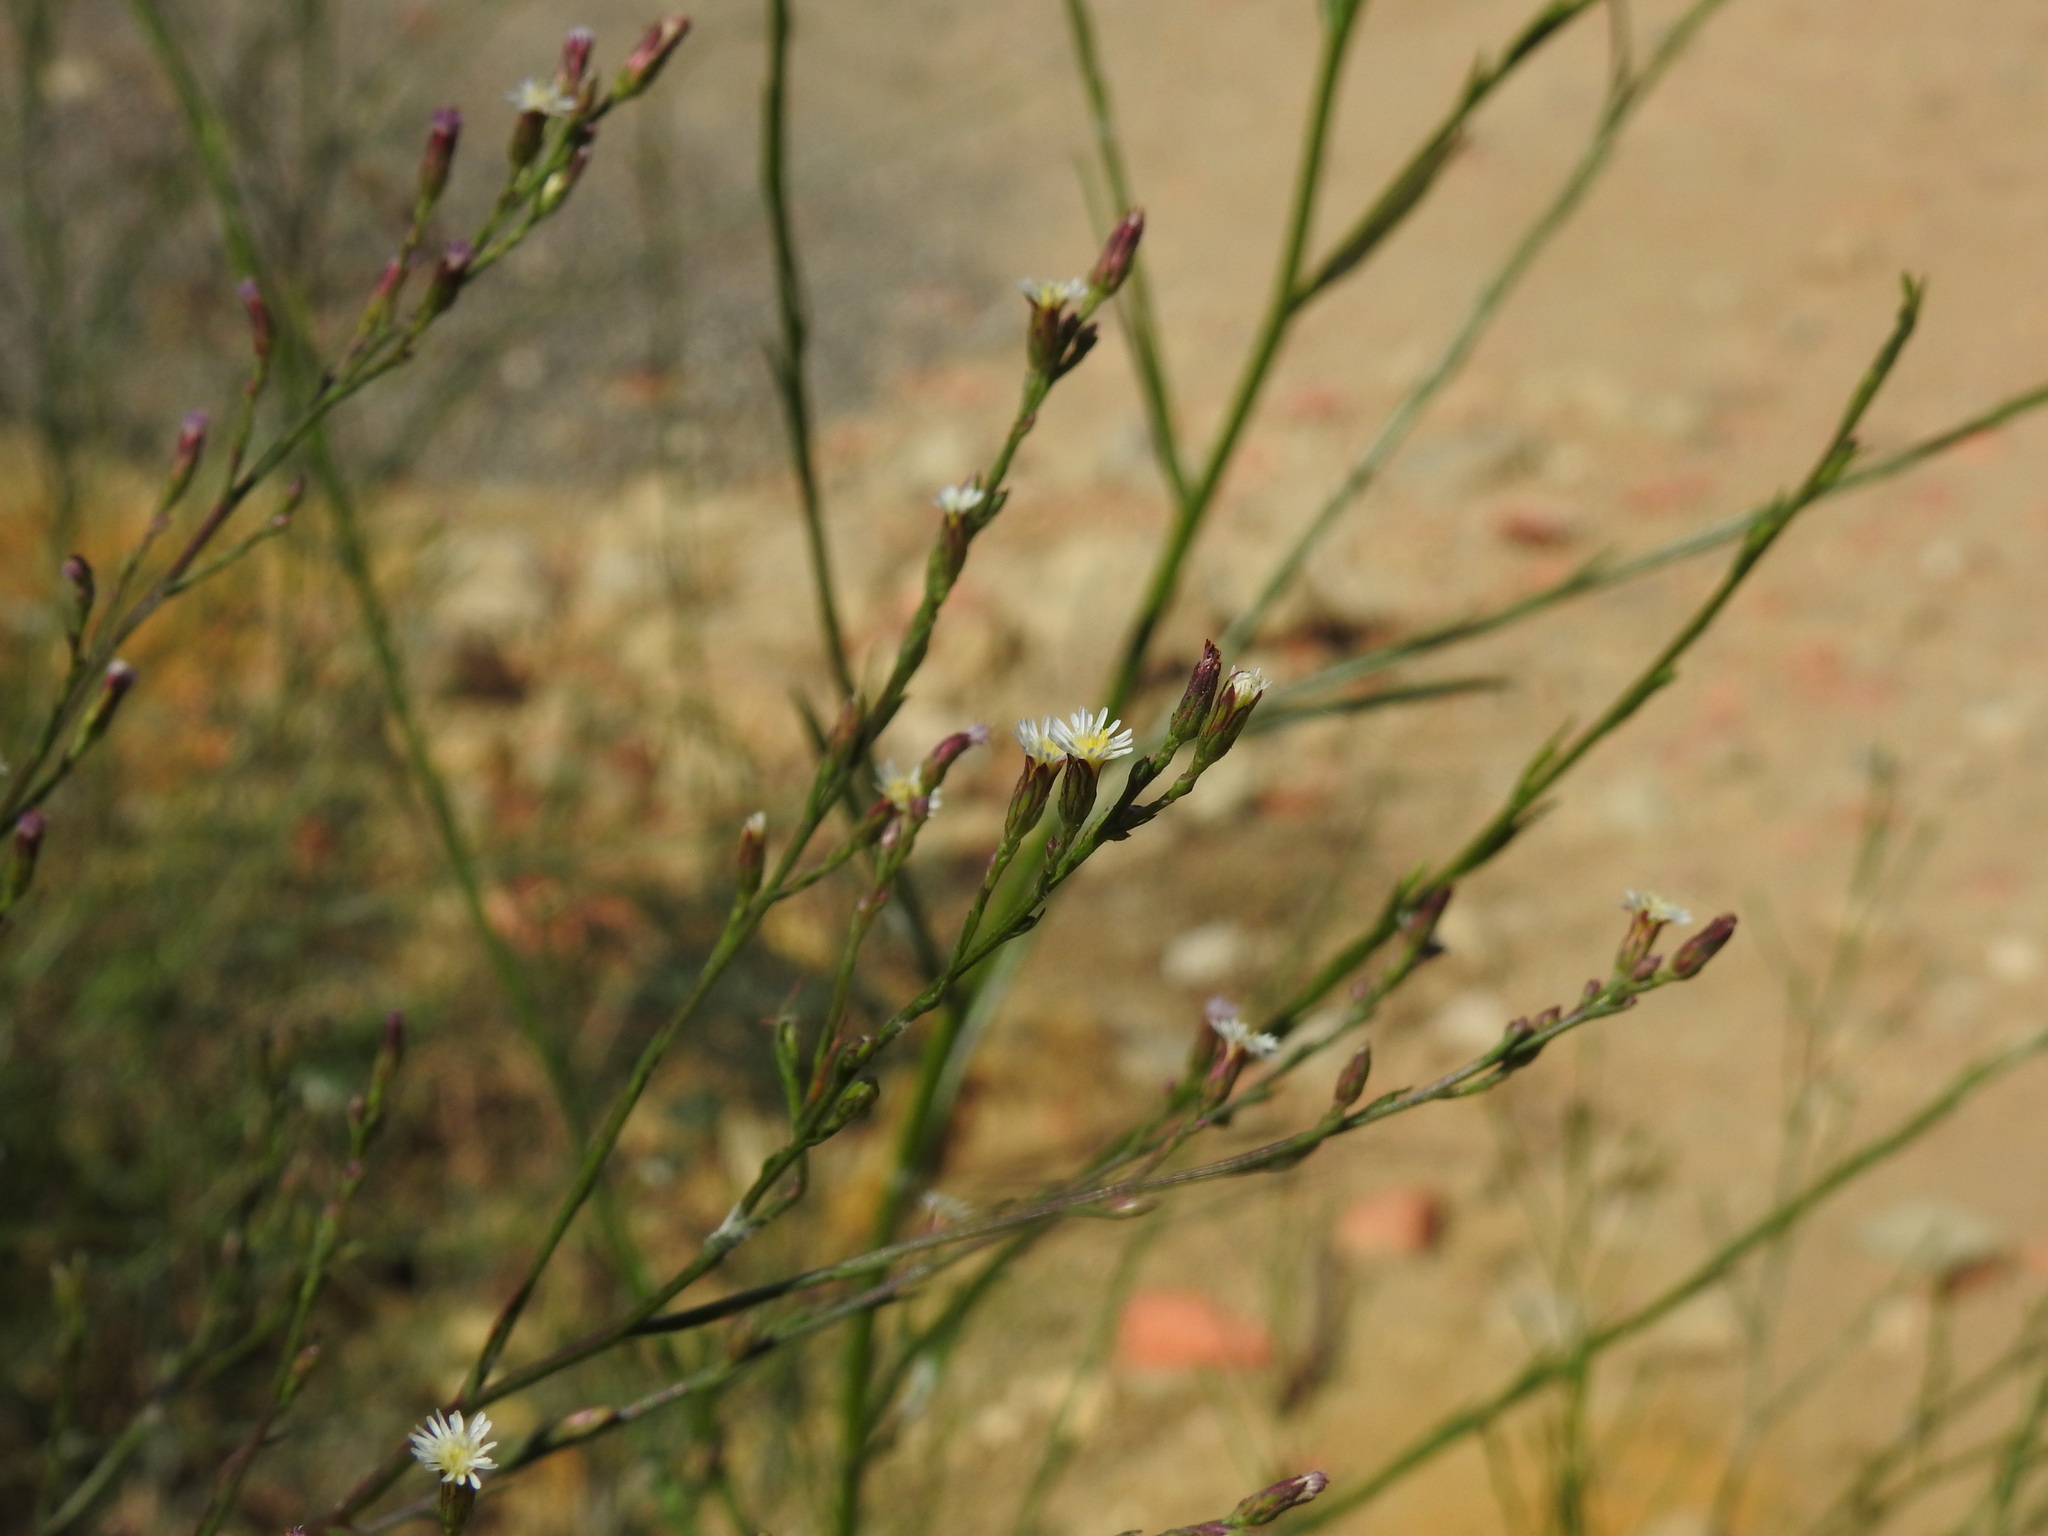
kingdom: Plantae
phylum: Tracheophyta
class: Magnoliopsida
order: Asterales
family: Asteraceae
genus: Symphyotrichum
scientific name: Symphyotrichum squamatum
